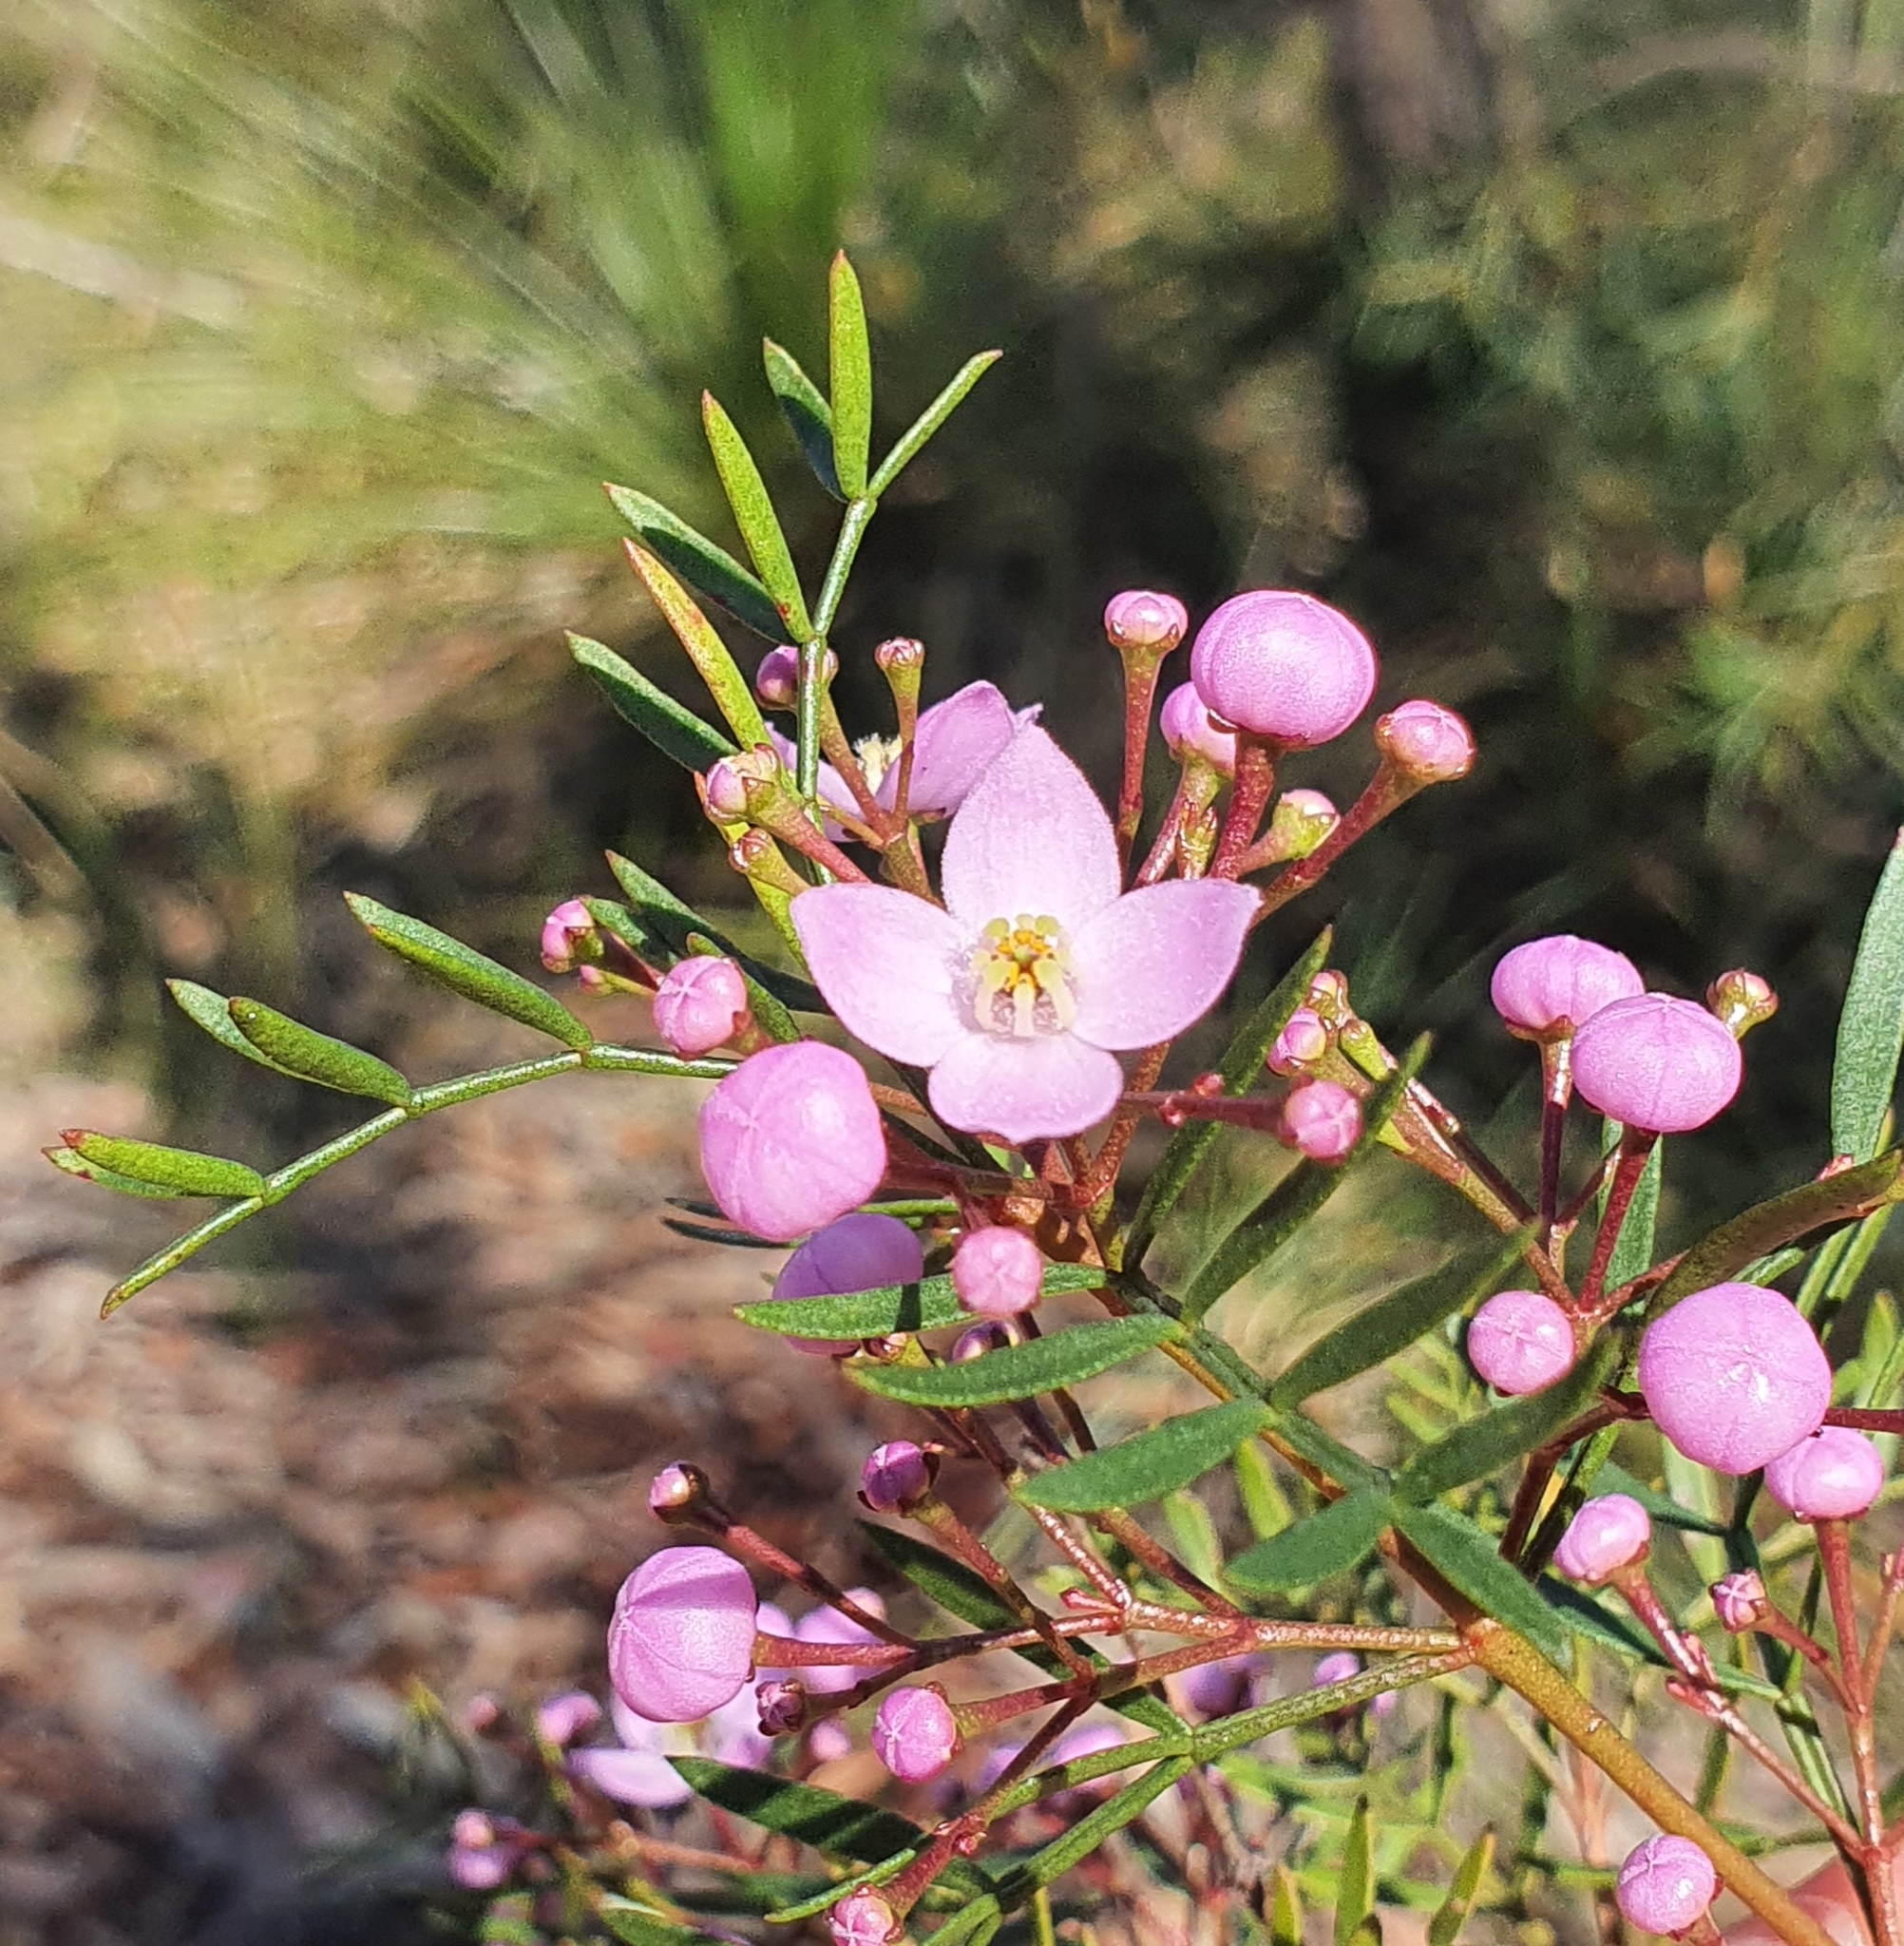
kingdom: Plantae
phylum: Tracheophyta
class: Magnoliopsida
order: Sapindales
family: Rutaceae
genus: Boronia
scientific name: Boronia pinnata
